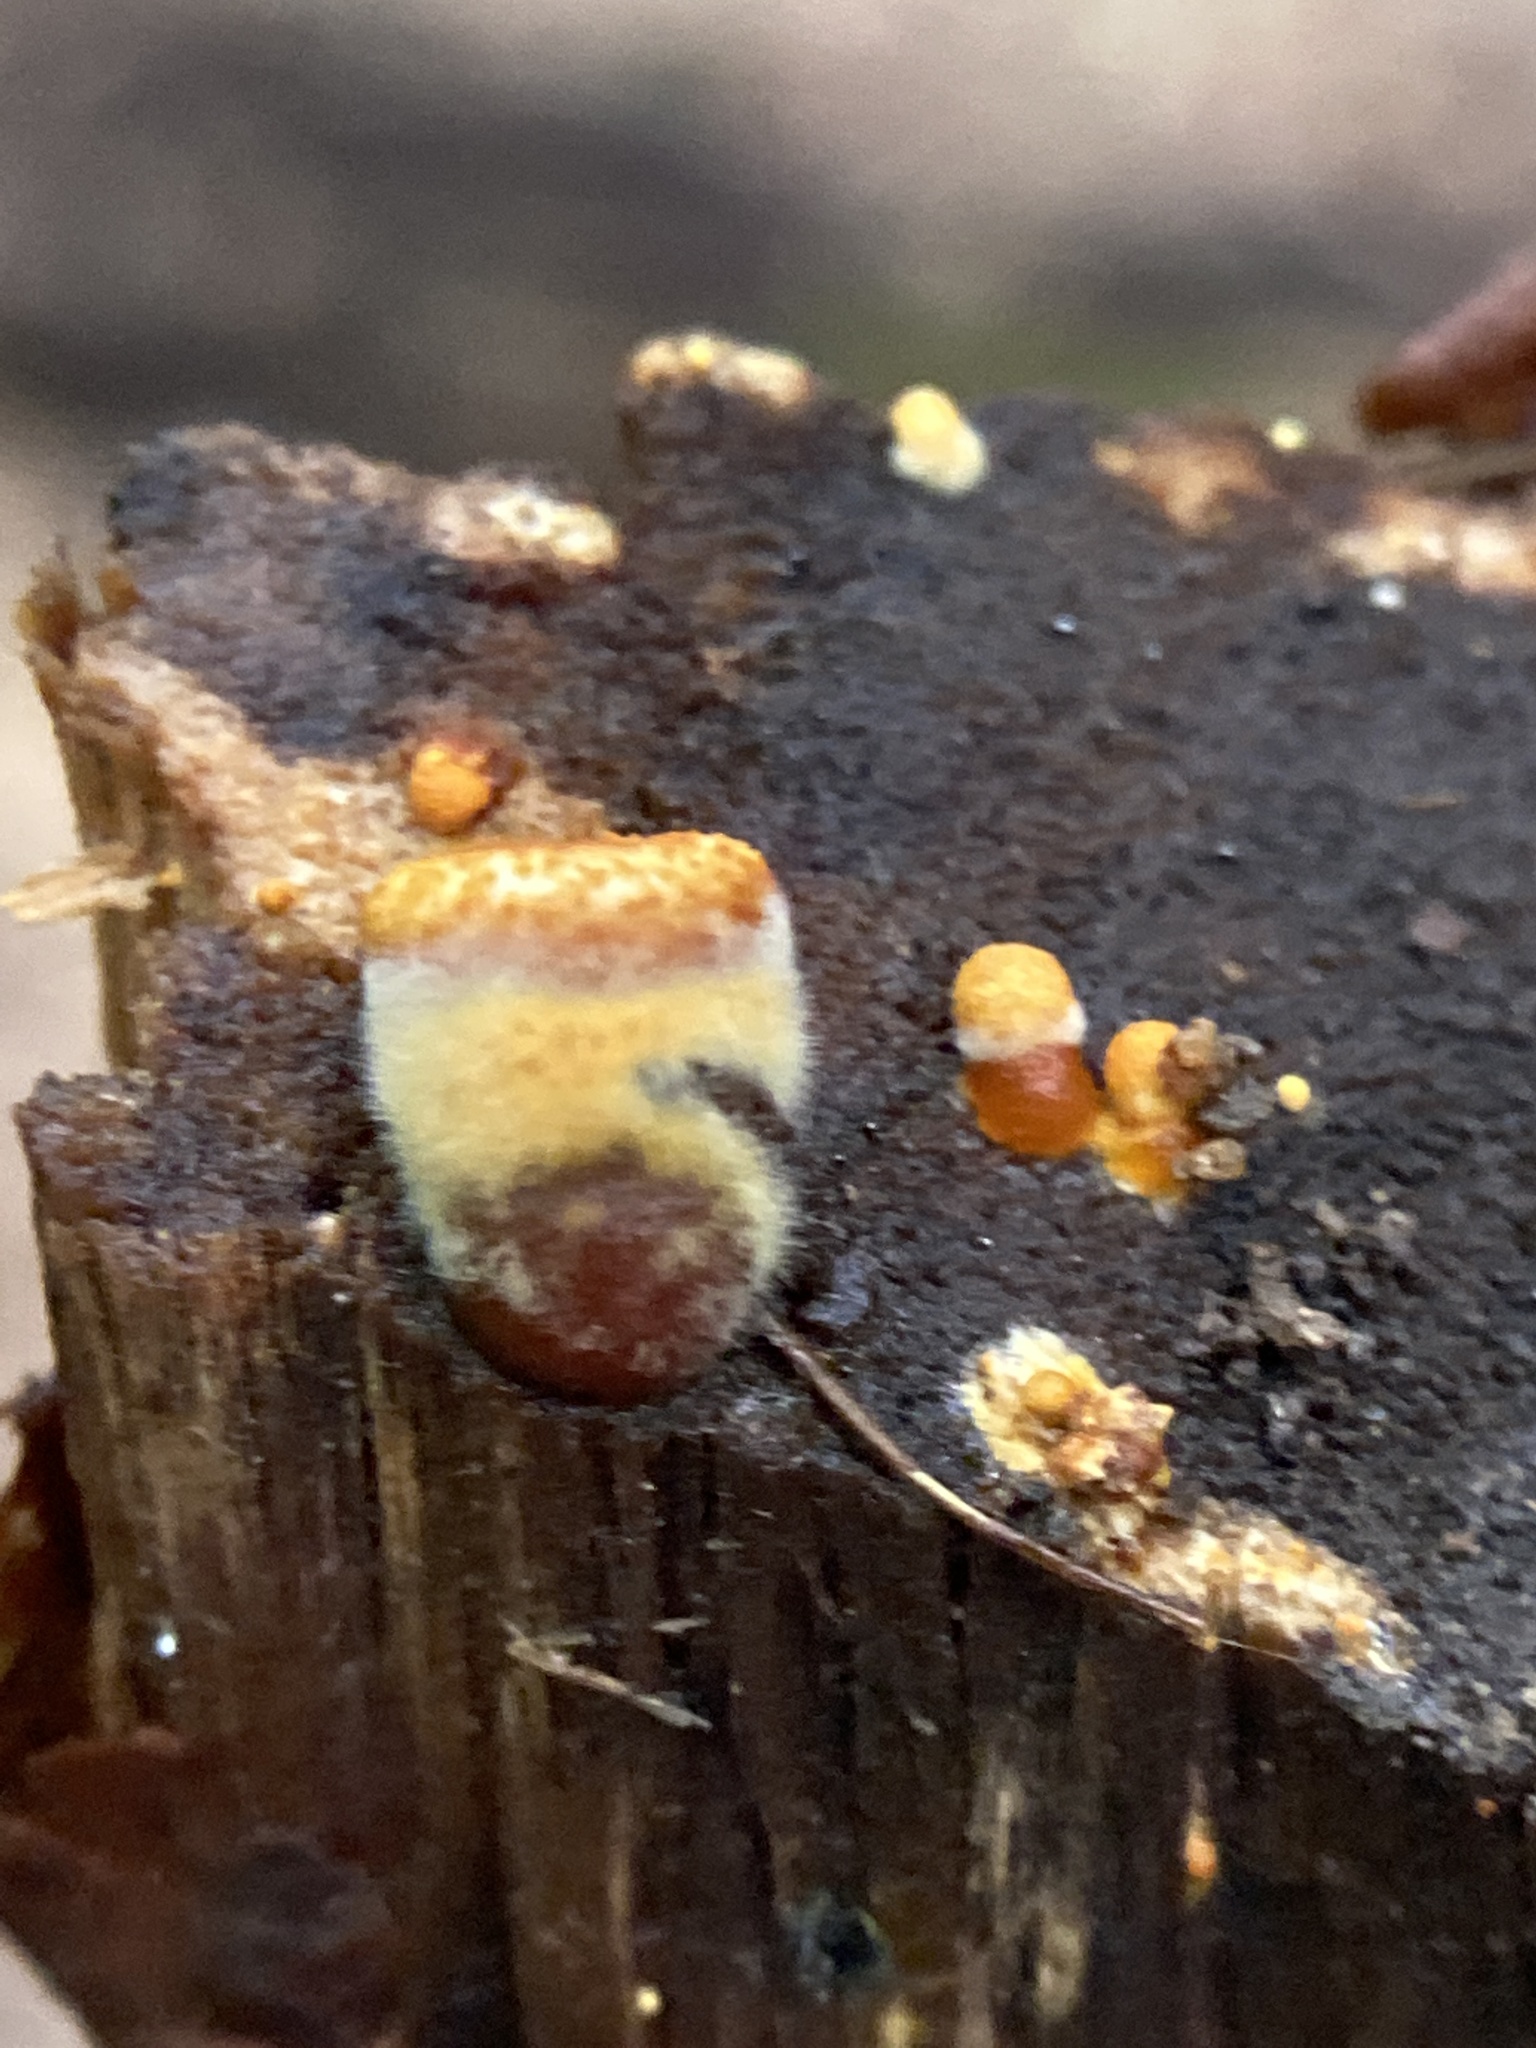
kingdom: Fungi
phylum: Basidiomycota
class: Agaricomycetes
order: Agaricales
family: Nidulariaceae
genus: Crucibulum
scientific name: Crucibulum laeve
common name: Common bird's nest
